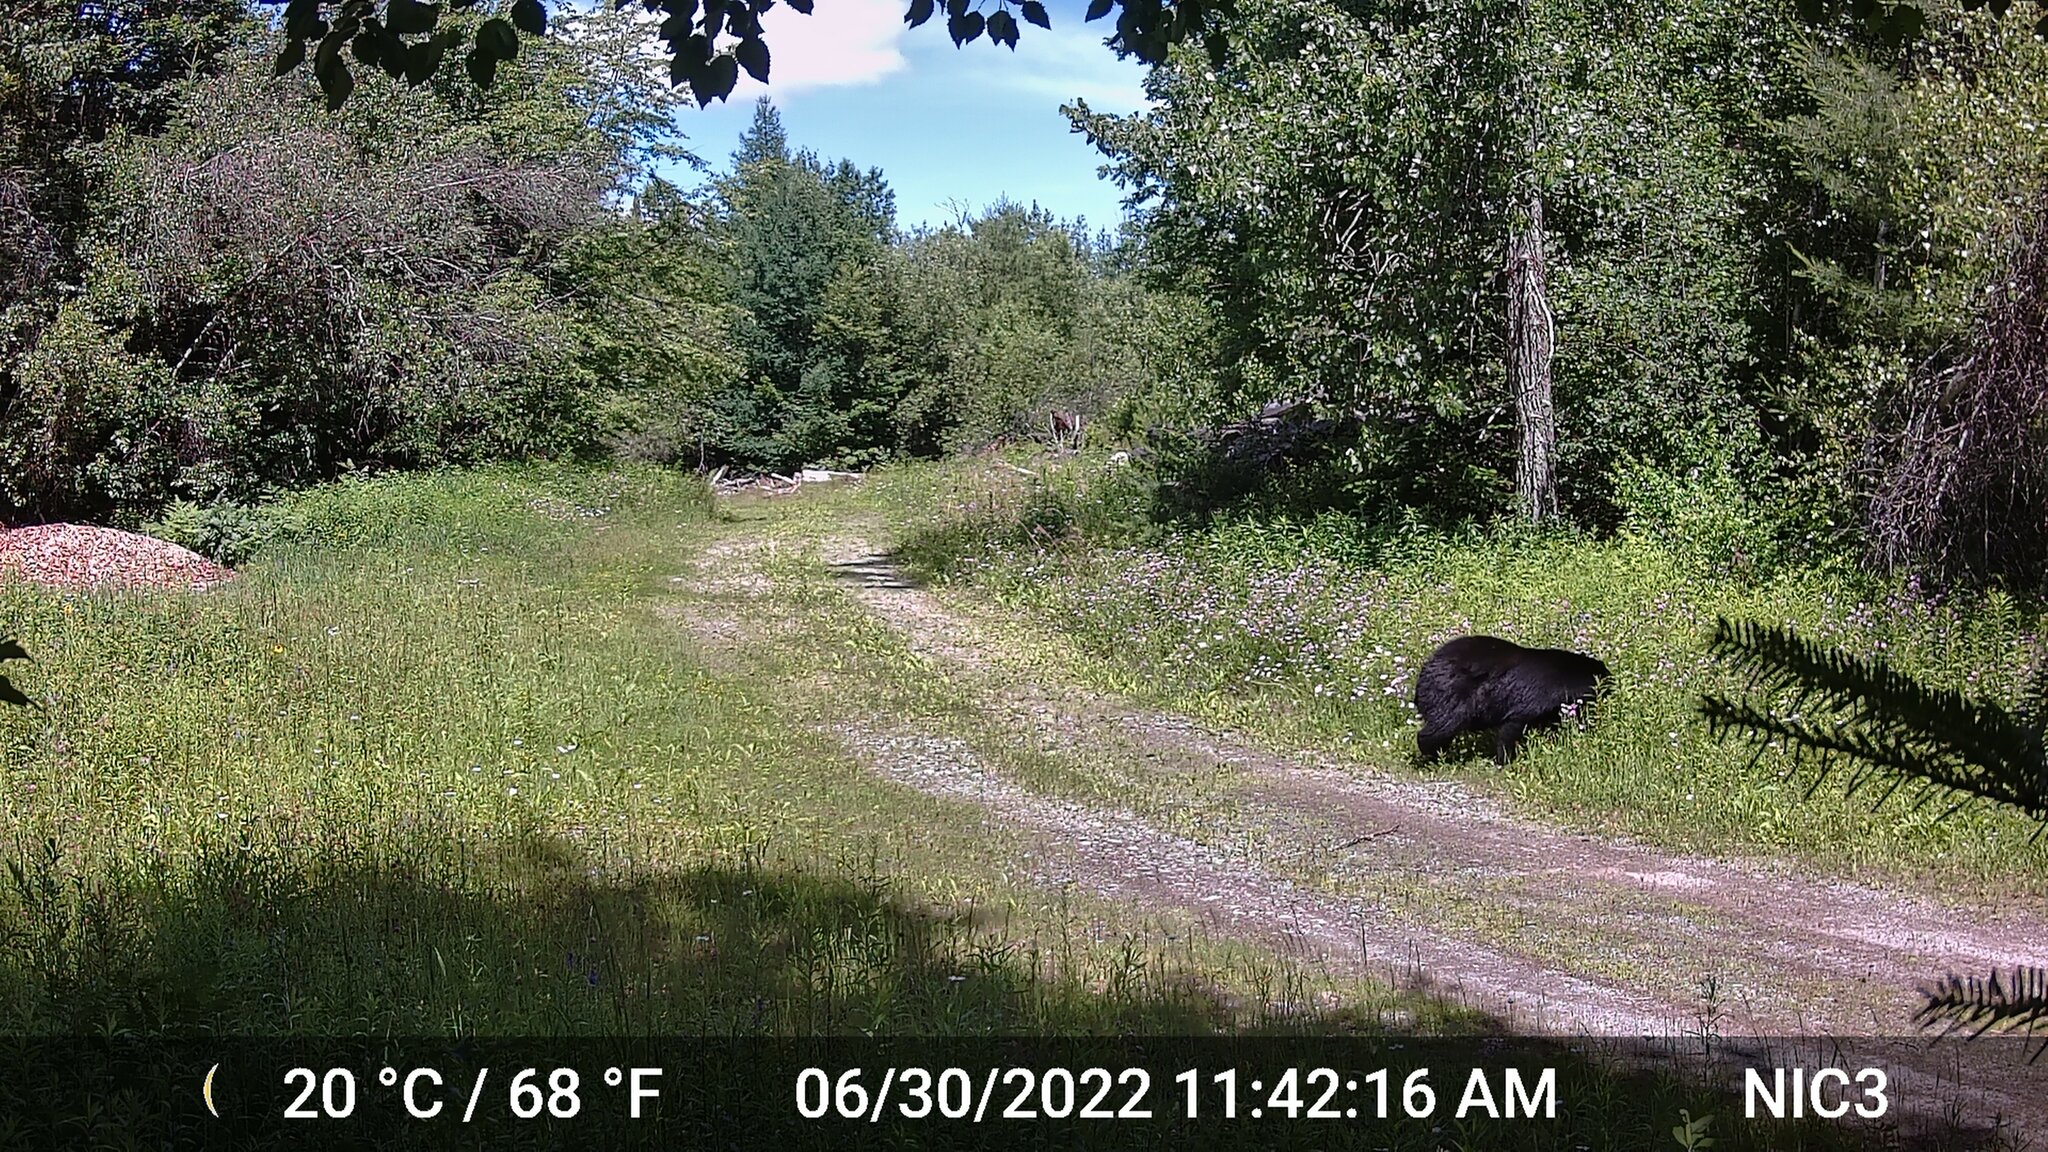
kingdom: Animalia
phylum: Chordata
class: Mammalia
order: Carnivora
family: Ursidae
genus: Ursus
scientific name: Ursus americanus
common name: American black bear
